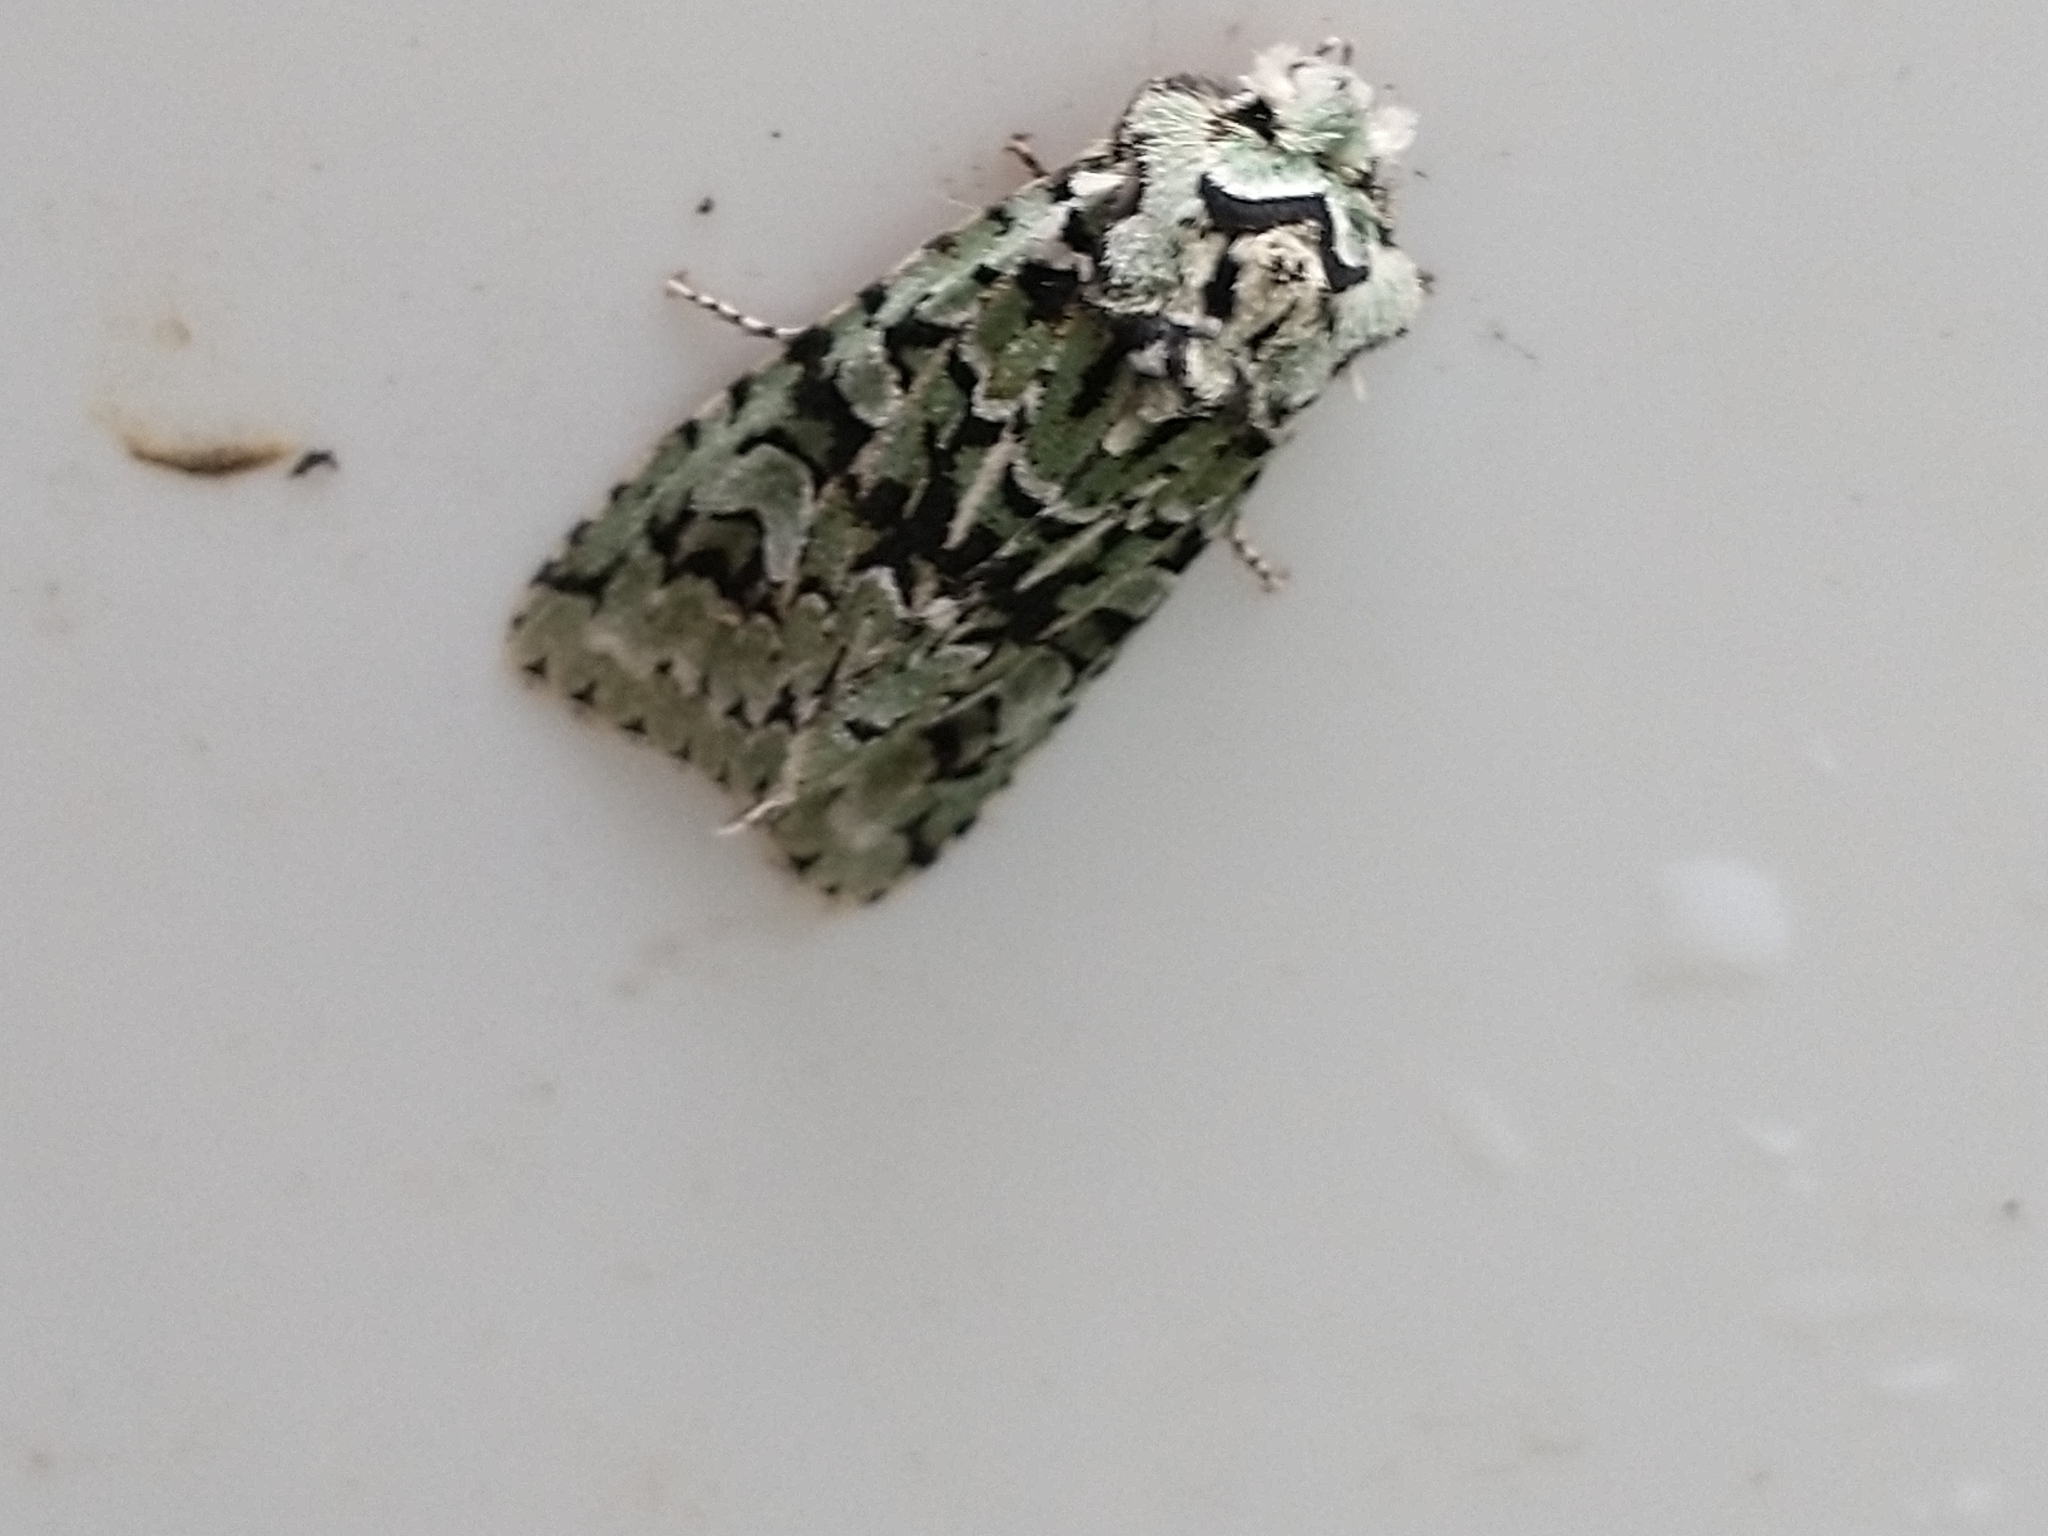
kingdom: Animalia
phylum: Arthropoda
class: Insecta
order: Lepidoptera
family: Noctuidae
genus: Griposia
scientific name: Griposia aprilina
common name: Merveille du jour
